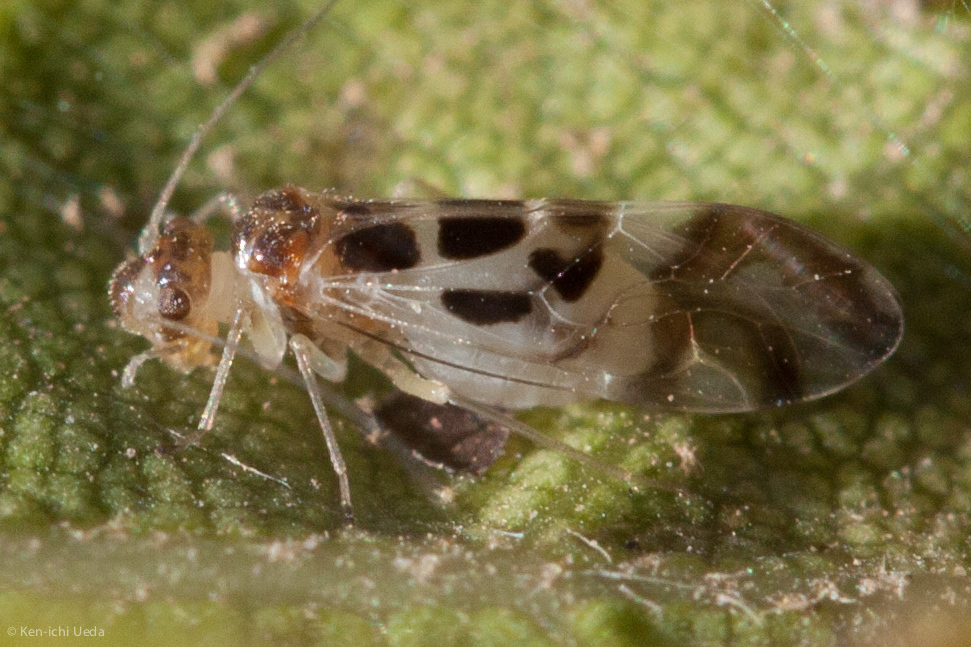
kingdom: Animalia
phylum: Arthropoda
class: Insecta
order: Psocodea
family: Stenopsocidae
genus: Graphopsocus
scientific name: Graphopsocus cruciatus
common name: Lizard bark louse
